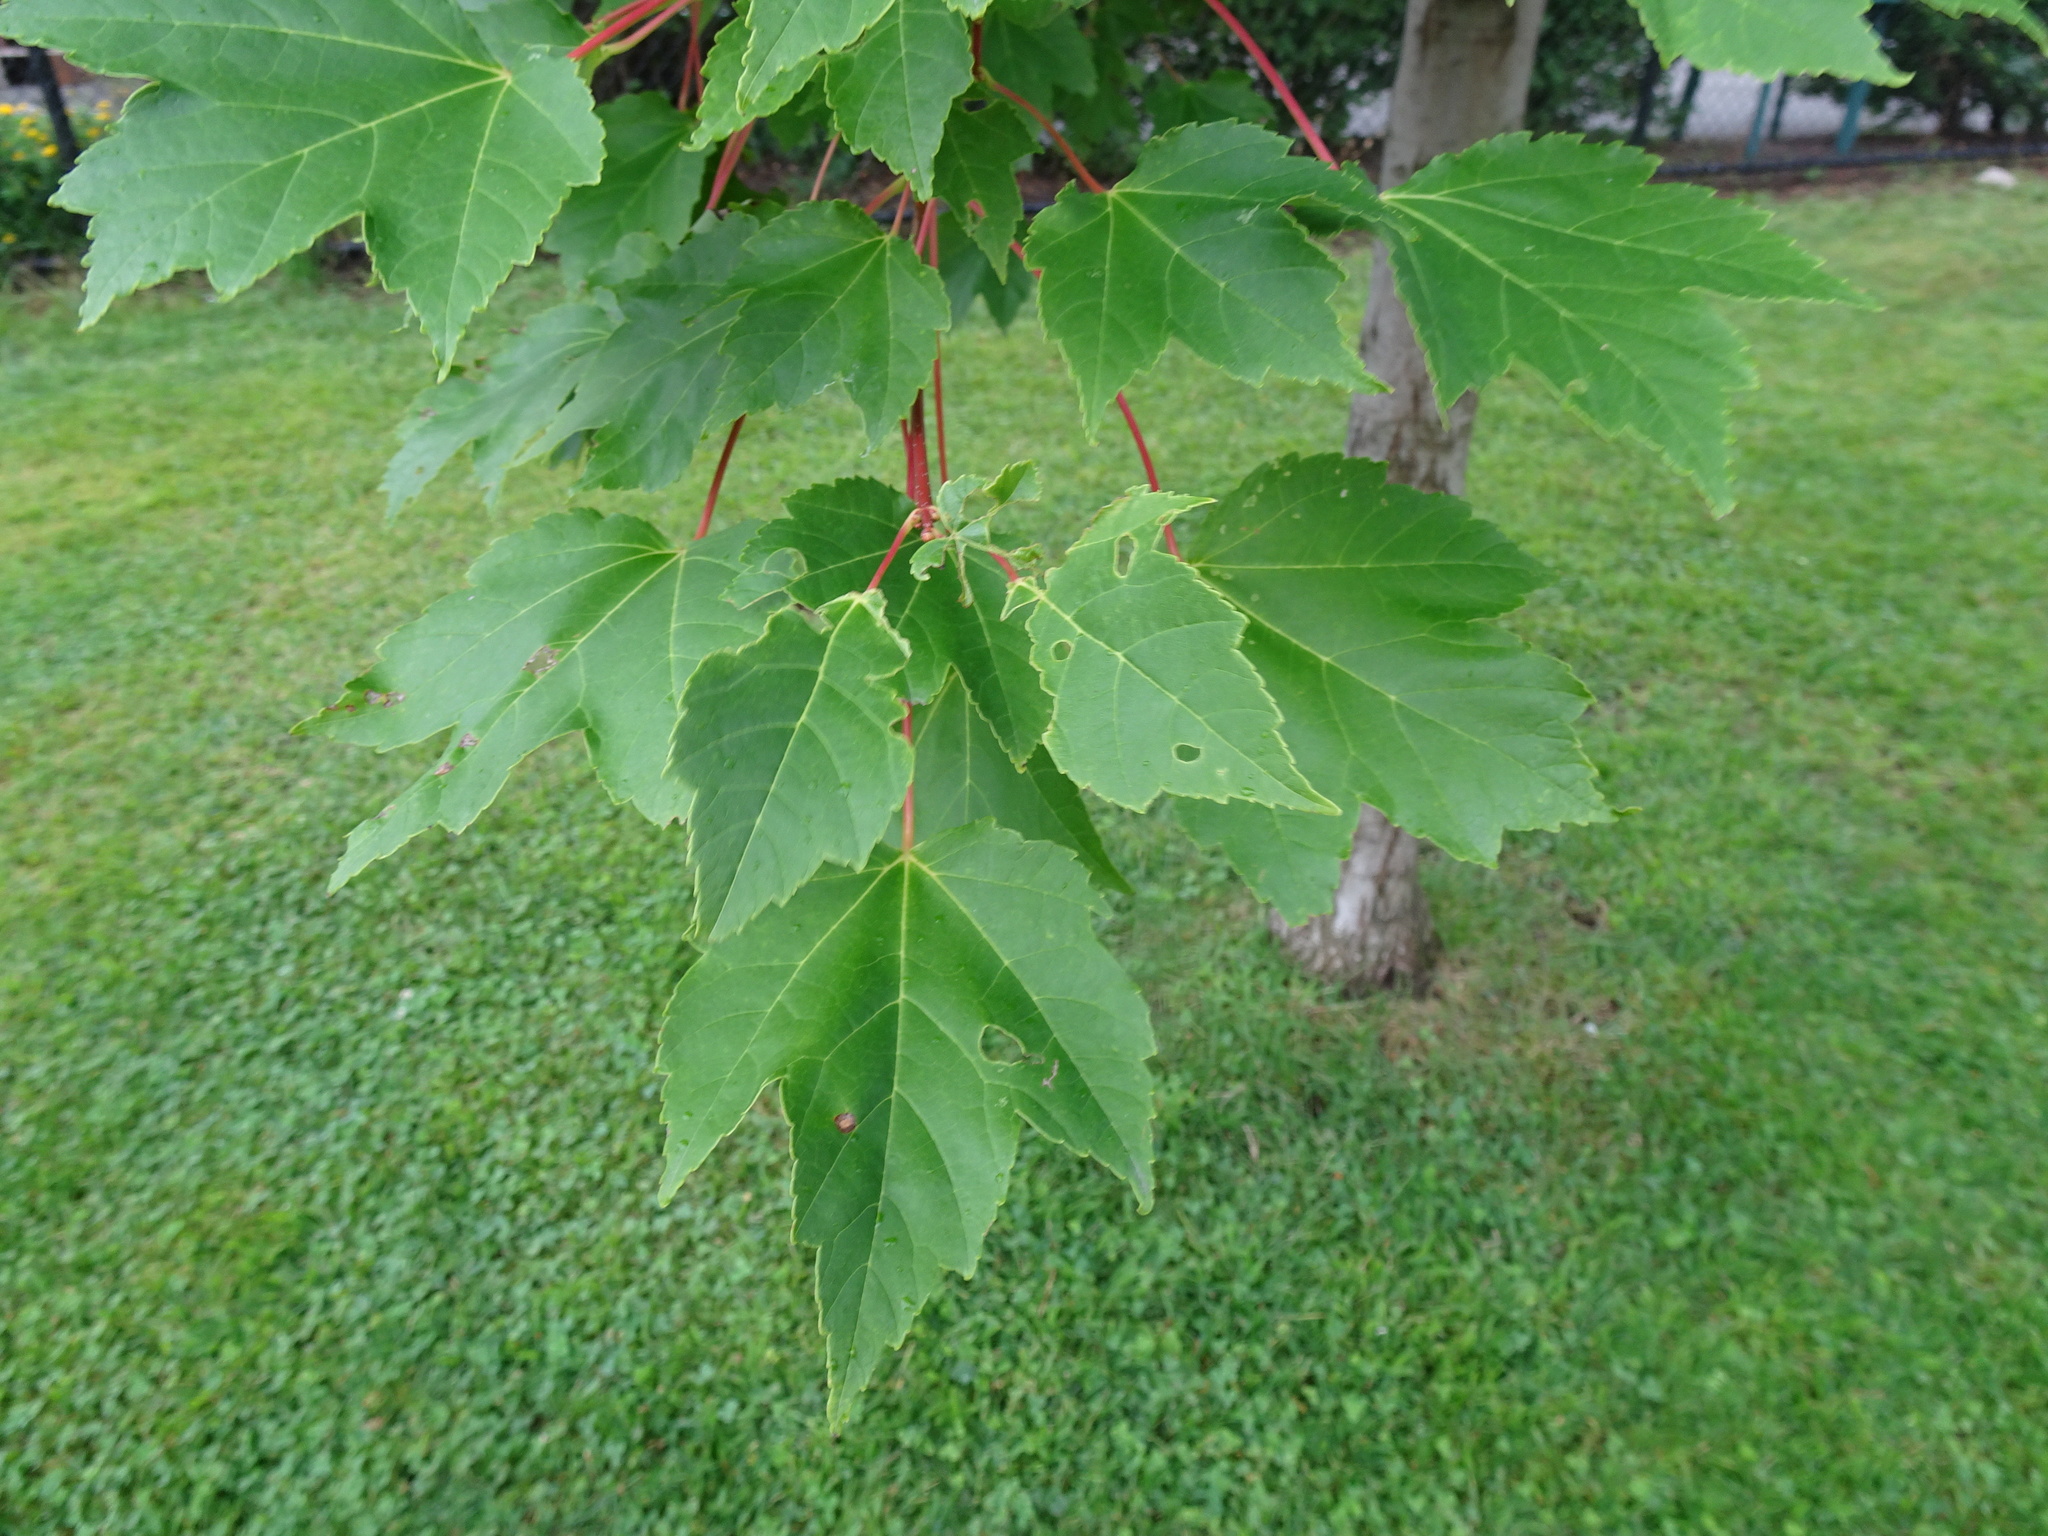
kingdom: Plantae
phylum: Tracheophyta
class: Magnoliopsida
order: Sapindales
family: Sapindaceae
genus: Acer
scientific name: Acer rubrum
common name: Red maple
